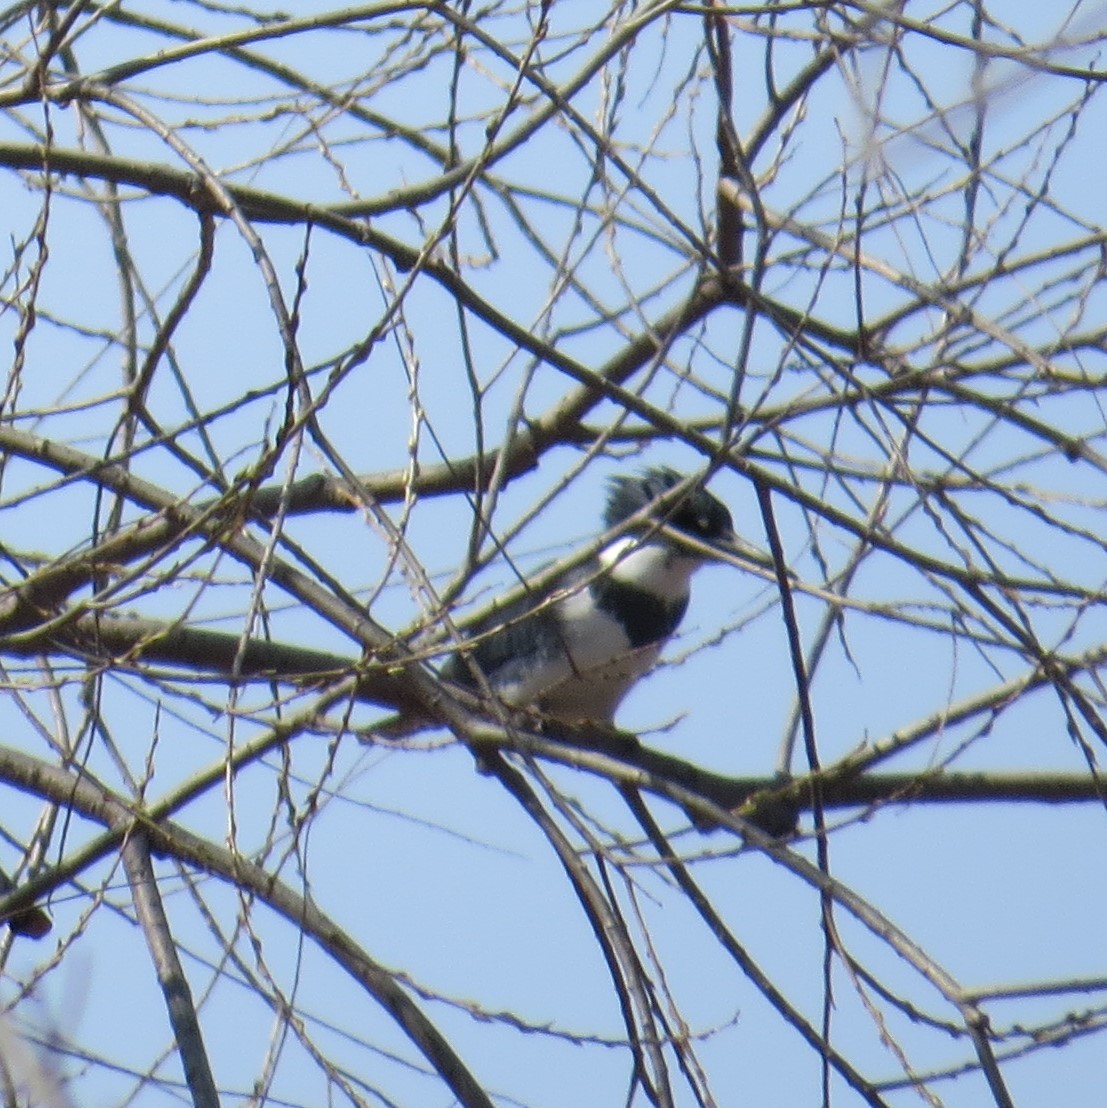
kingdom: Animalia
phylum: Chordata
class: Aves
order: Coraciiformes
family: Alcedinidae
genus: Megaceryle
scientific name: Megaceryle alcyon
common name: Belted kingfisher
